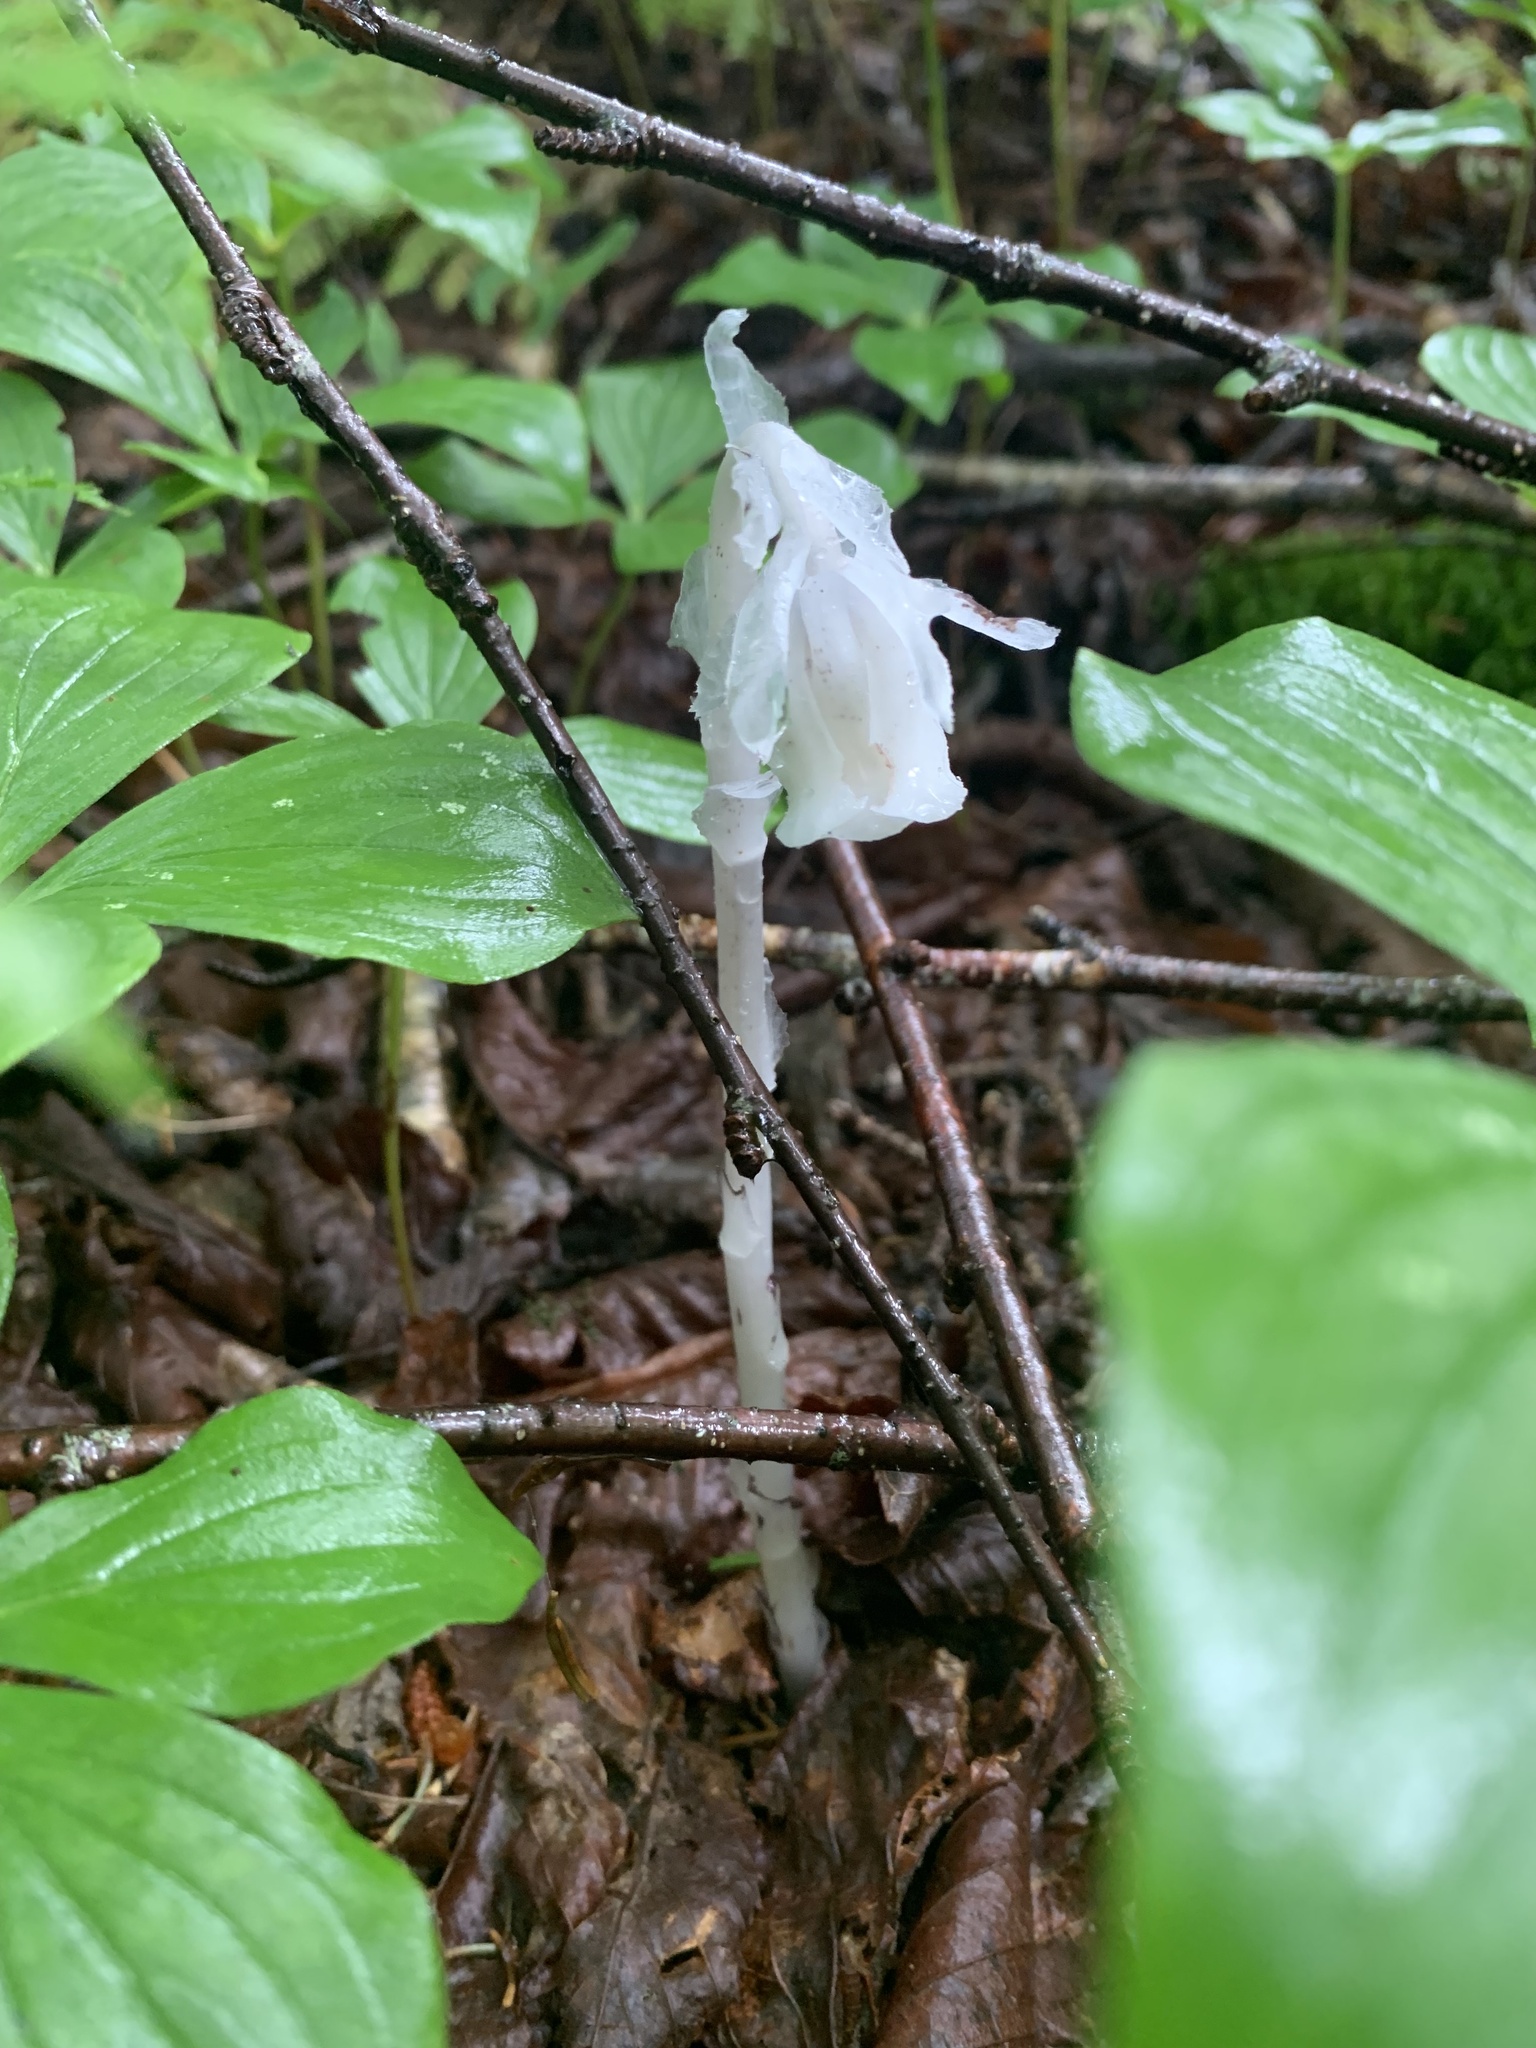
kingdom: Plantae
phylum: Tracheophyta
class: Magnoliopsida
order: Ericales
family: Ericaceae
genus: Monotropa
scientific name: Monotropa uniflora
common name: Convulsion root
